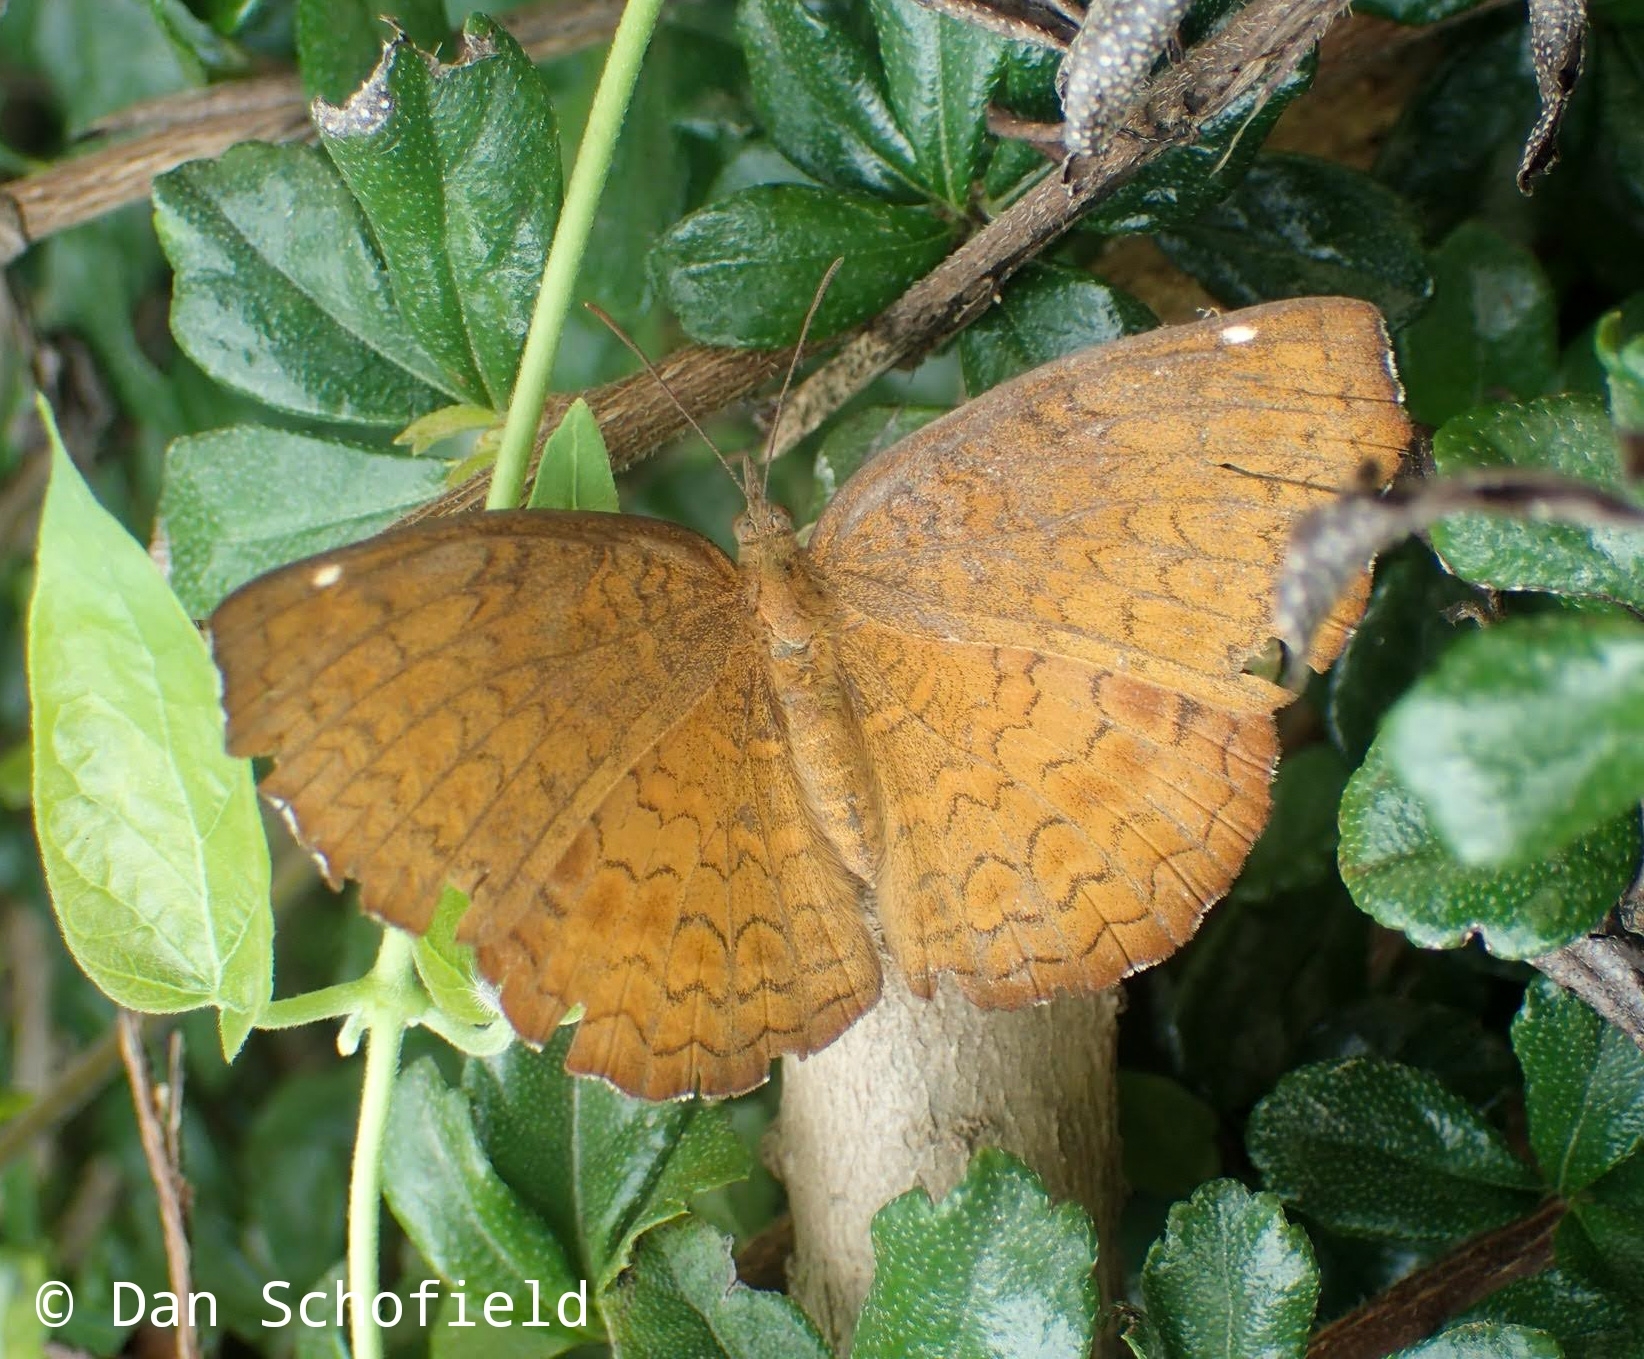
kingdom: Animalia
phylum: Arthropoda
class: Insecta
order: Lepidoptera
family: Nymphalidae
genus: Ariadne
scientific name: Ariadne merione
